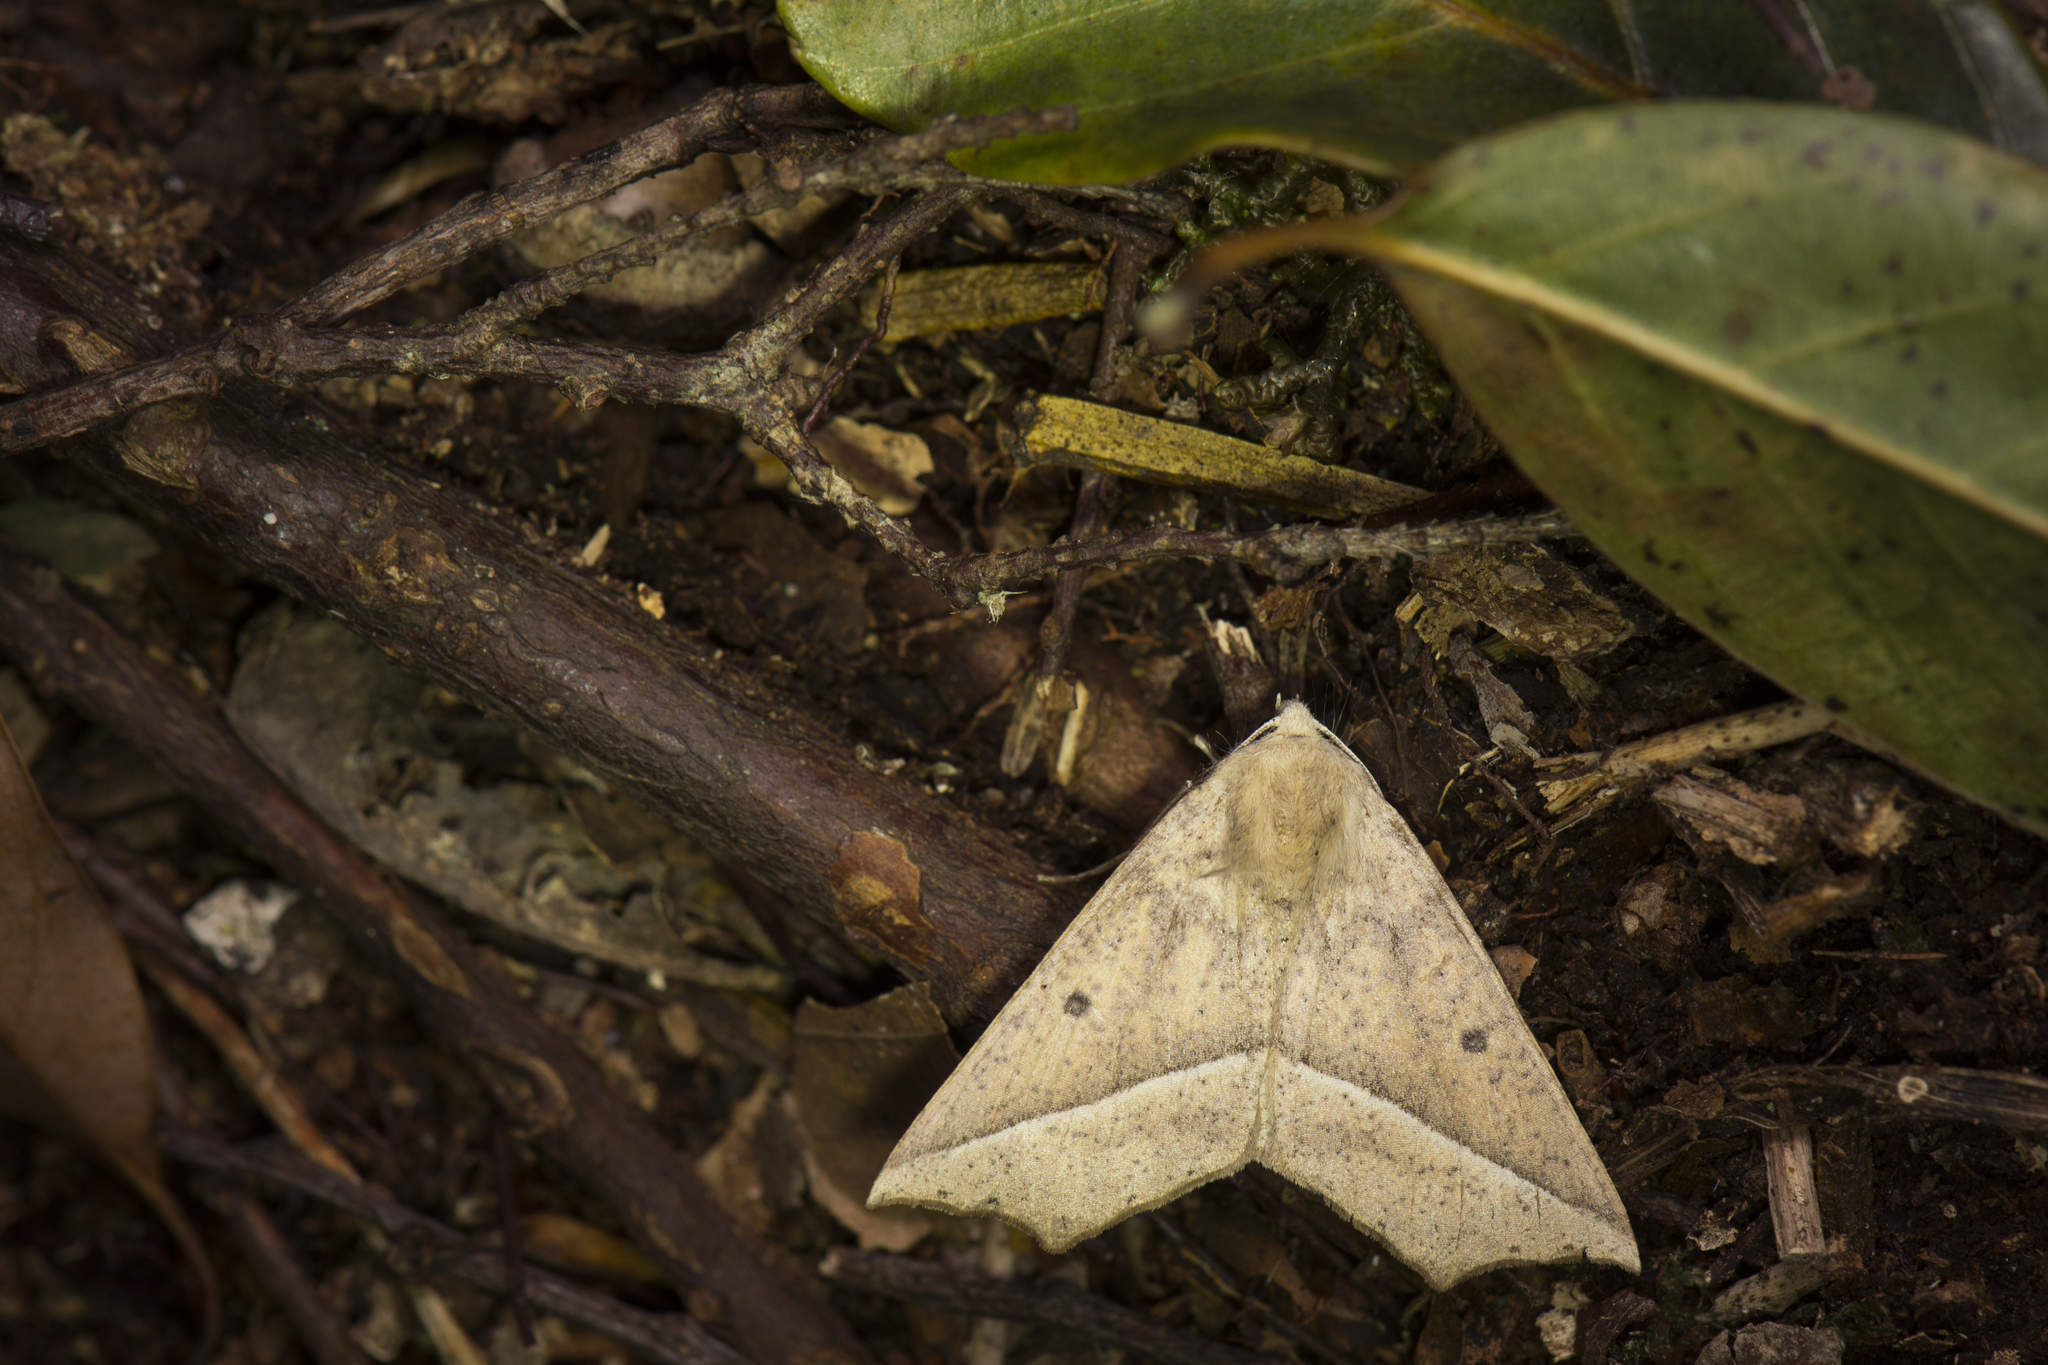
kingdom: Animalia
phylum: Arthropoda
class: Insecta
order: Lepidoptera
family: Geometridae
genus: Odontopera
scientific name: Odontopera albiguttulata
